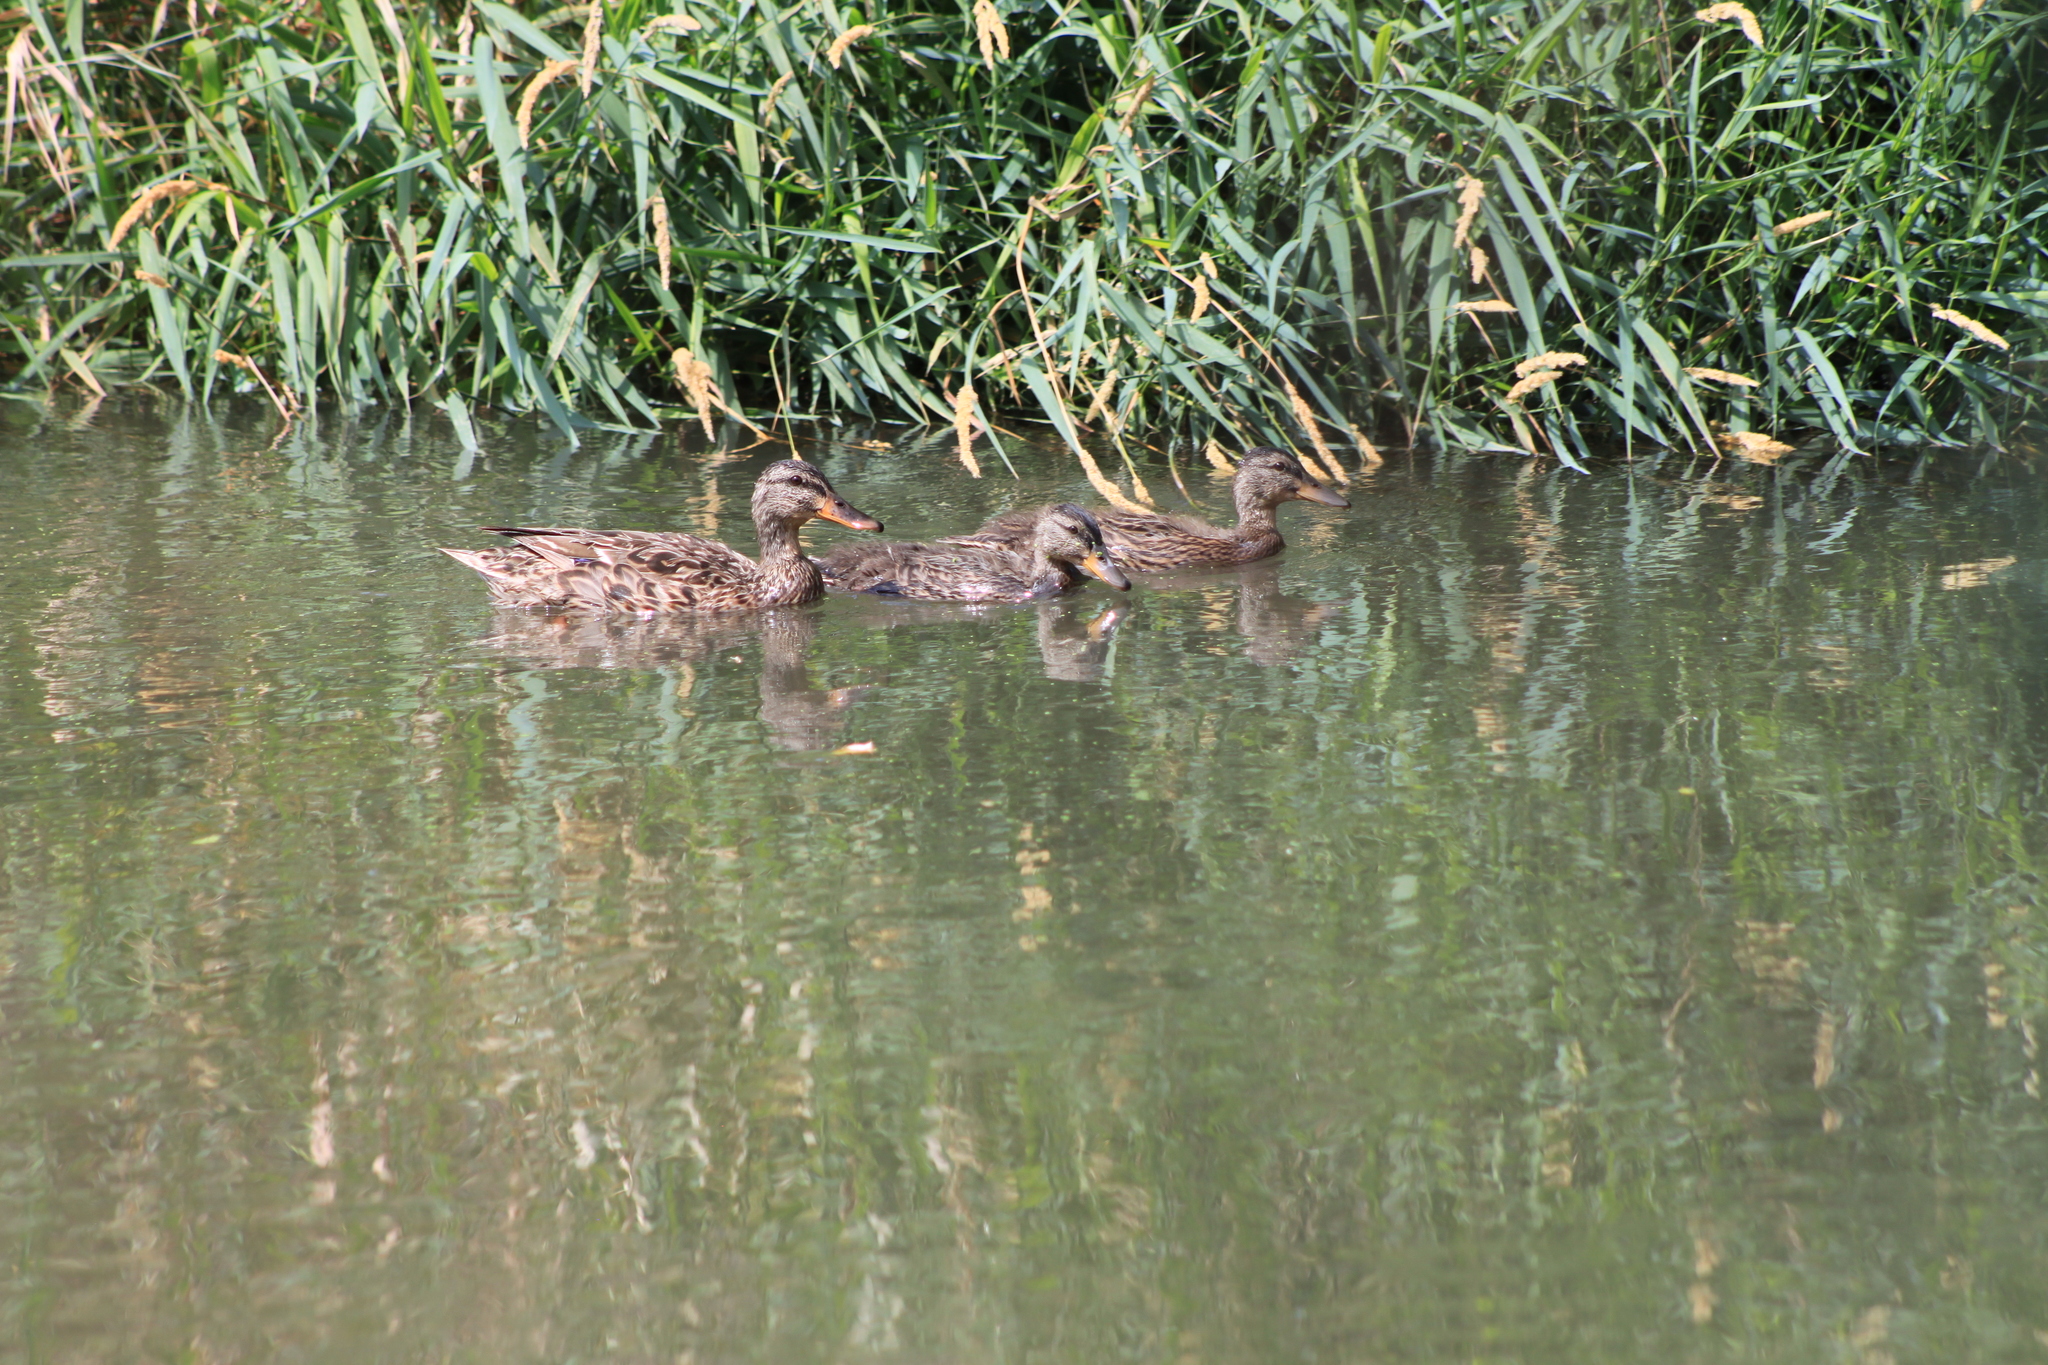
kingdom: Animalia
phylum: Chordata
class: Aves
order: Anseriformes
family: Anatidae
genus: Anas
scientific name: Anas platyrhynchos
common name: Mallard
